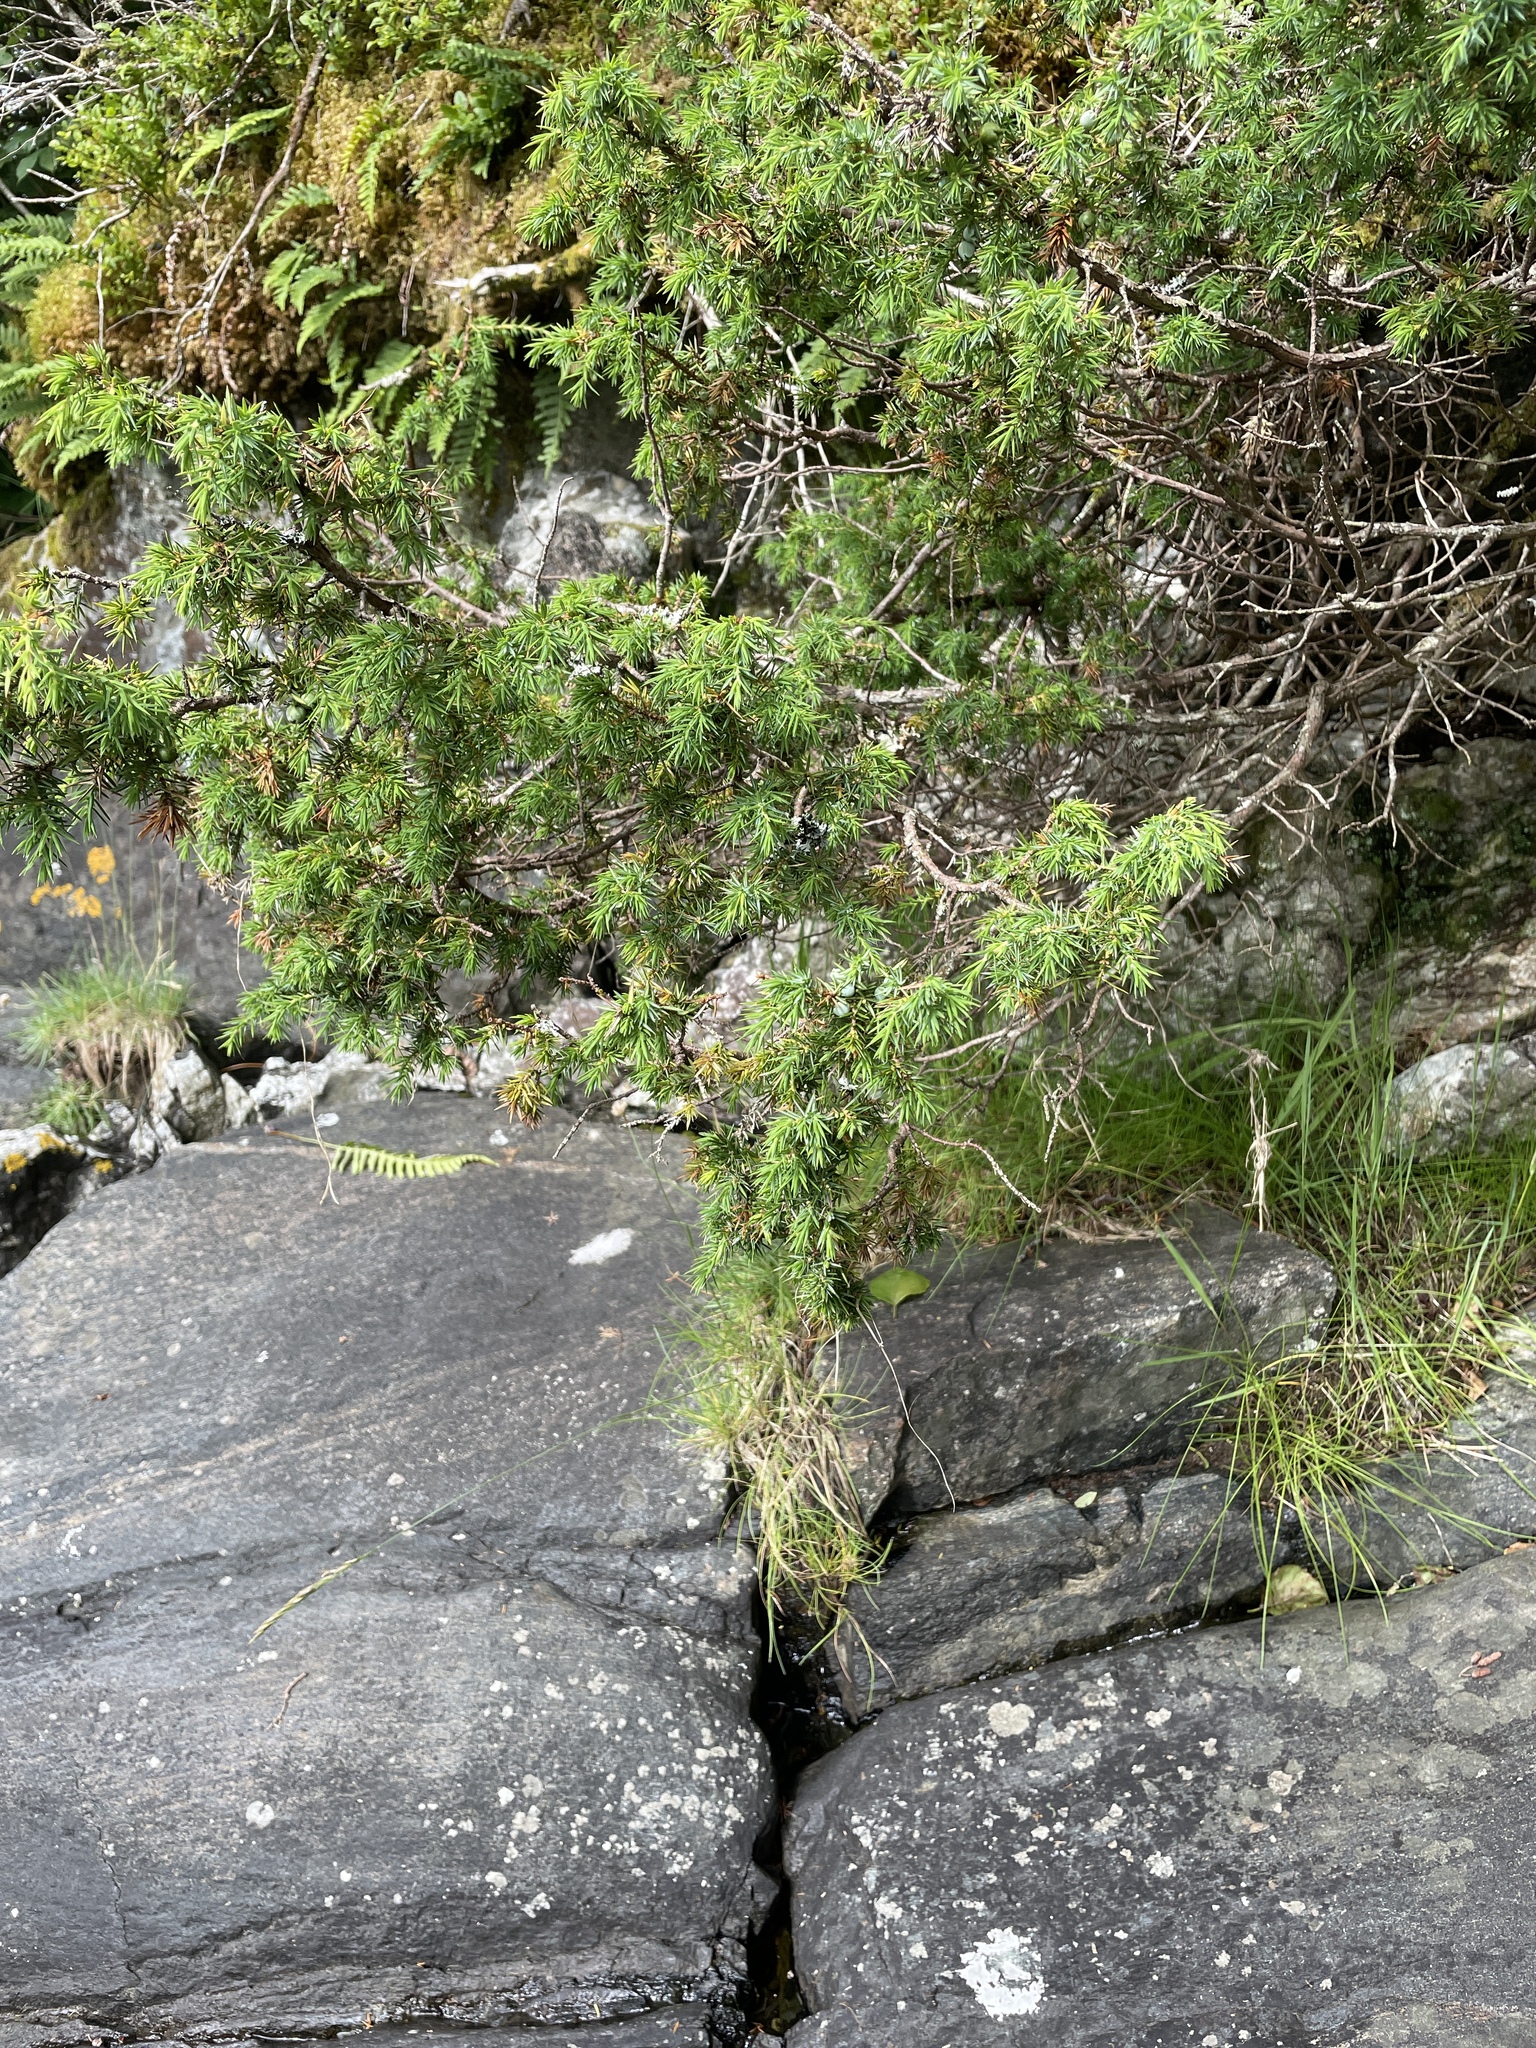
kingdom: Plantae
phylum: Tracheophyta
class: Pinopsida
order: Pinales
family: Cupressaceae
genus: Juniperus
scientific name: Juniperus communis
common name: Common juniper
